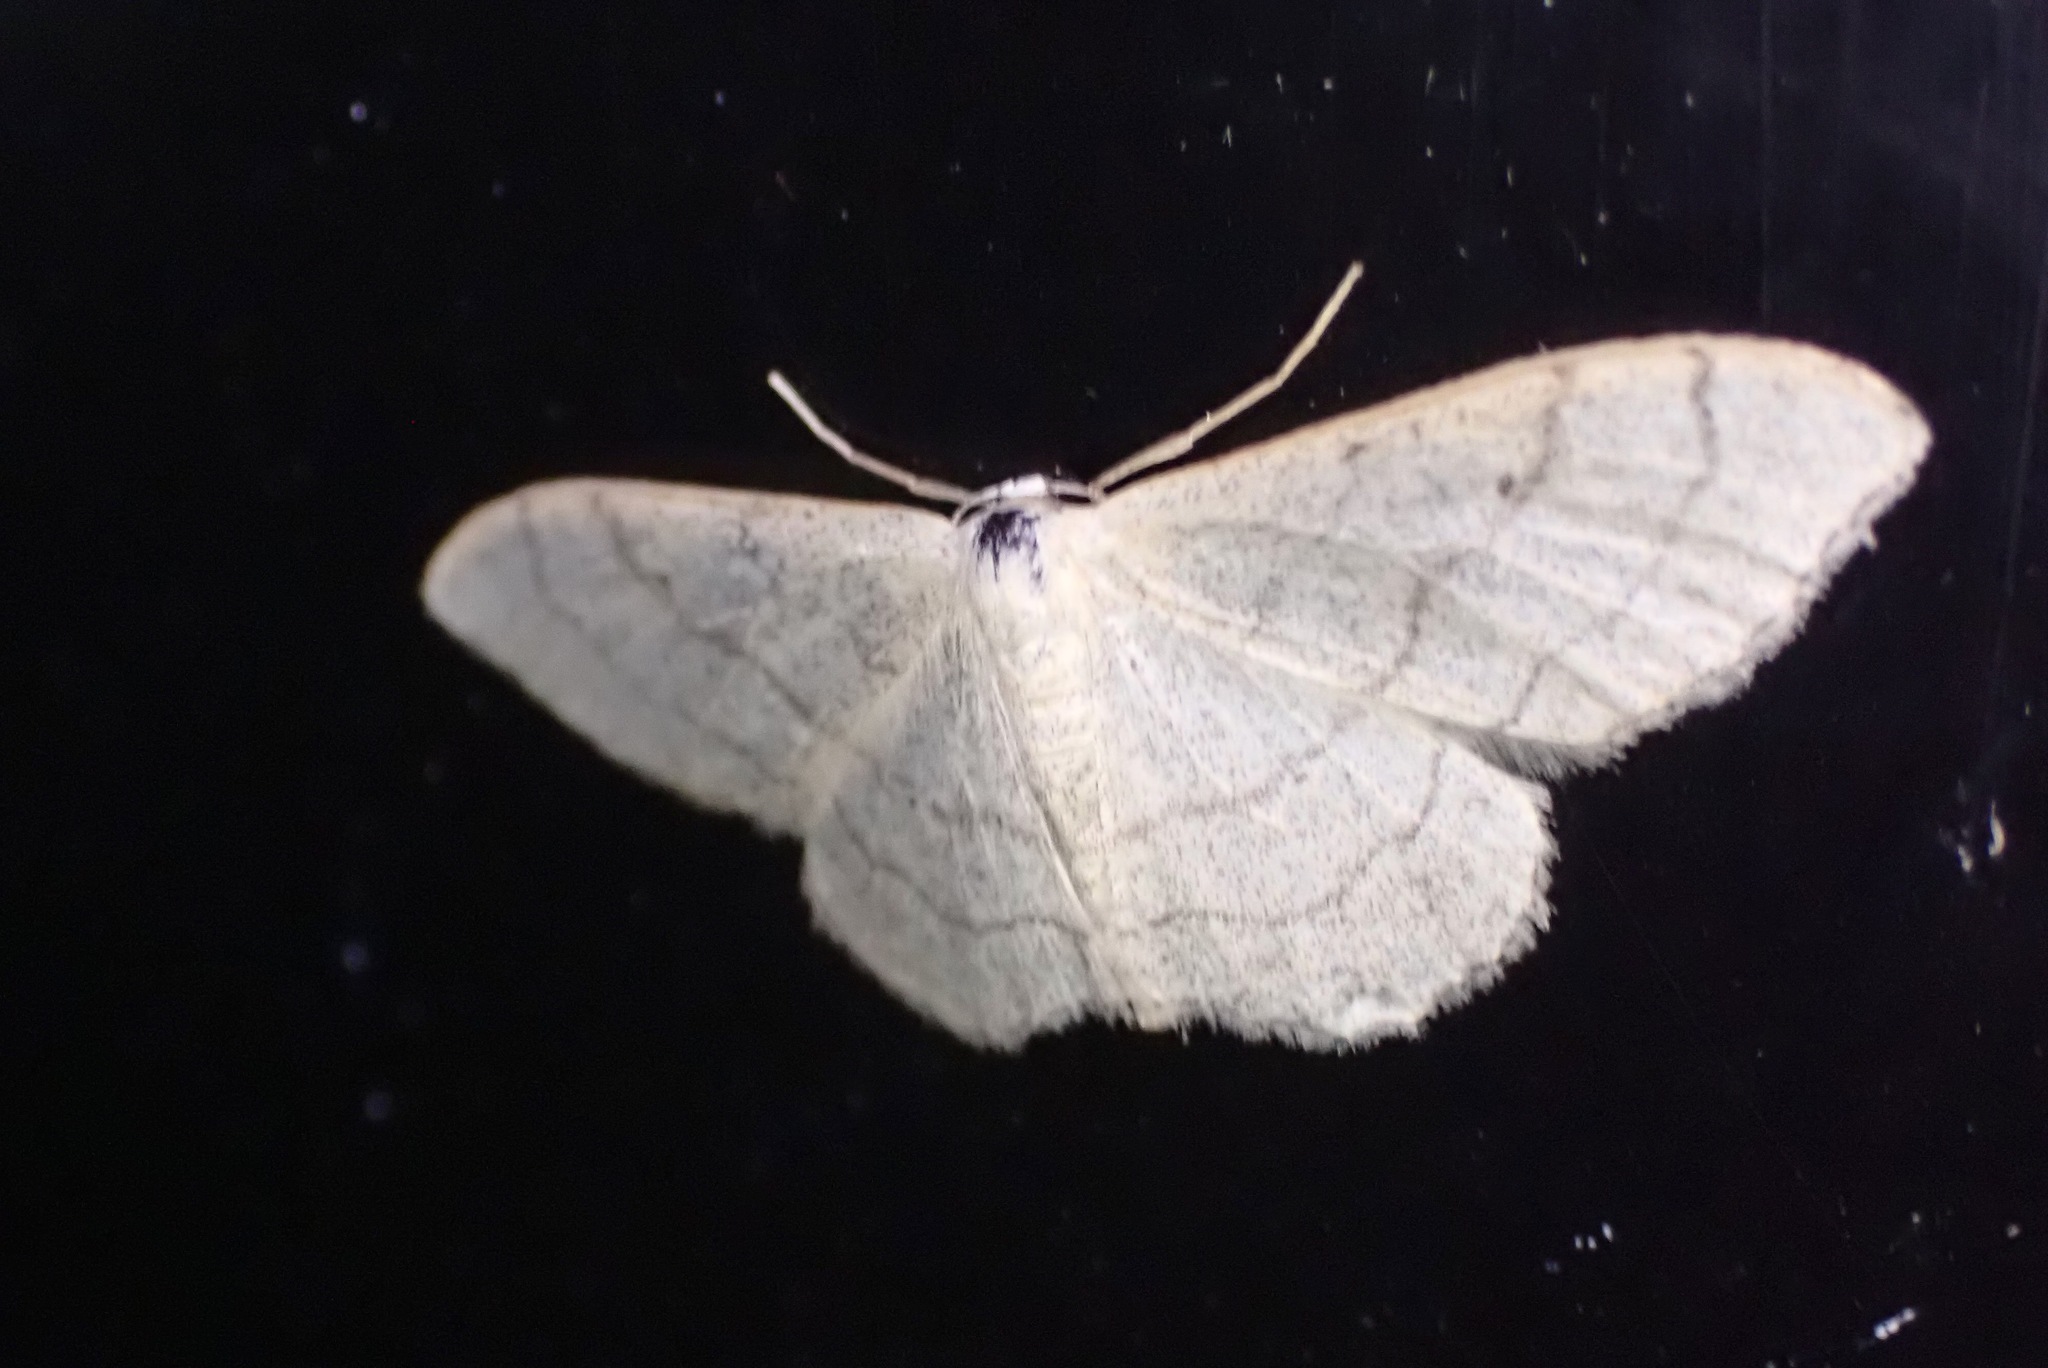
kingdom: Animalia
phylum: Arthropoda
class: Insecta
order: Lepidoptera
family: Geometridae
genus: Idaea
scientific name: Idaea aversata
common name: Riband wave
